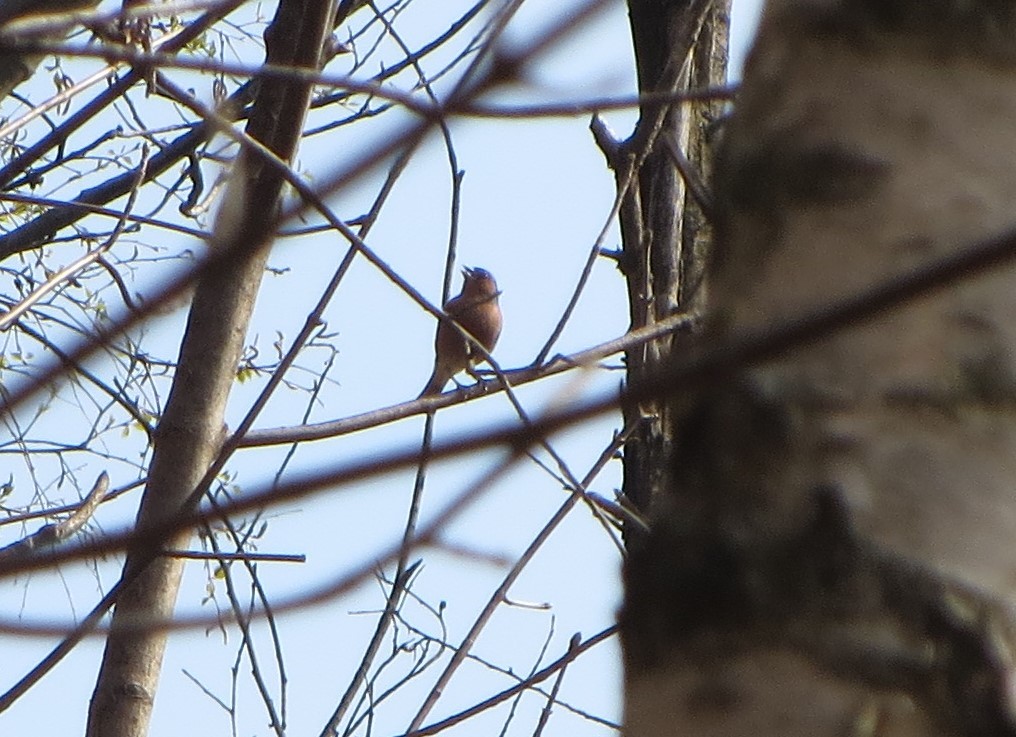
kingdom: Animalia
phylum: Chordata
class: Aves
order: Passeriformes
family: Fringillidae
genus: Fringilla
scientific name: Fringilla coelebs
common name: Common chaffinch
